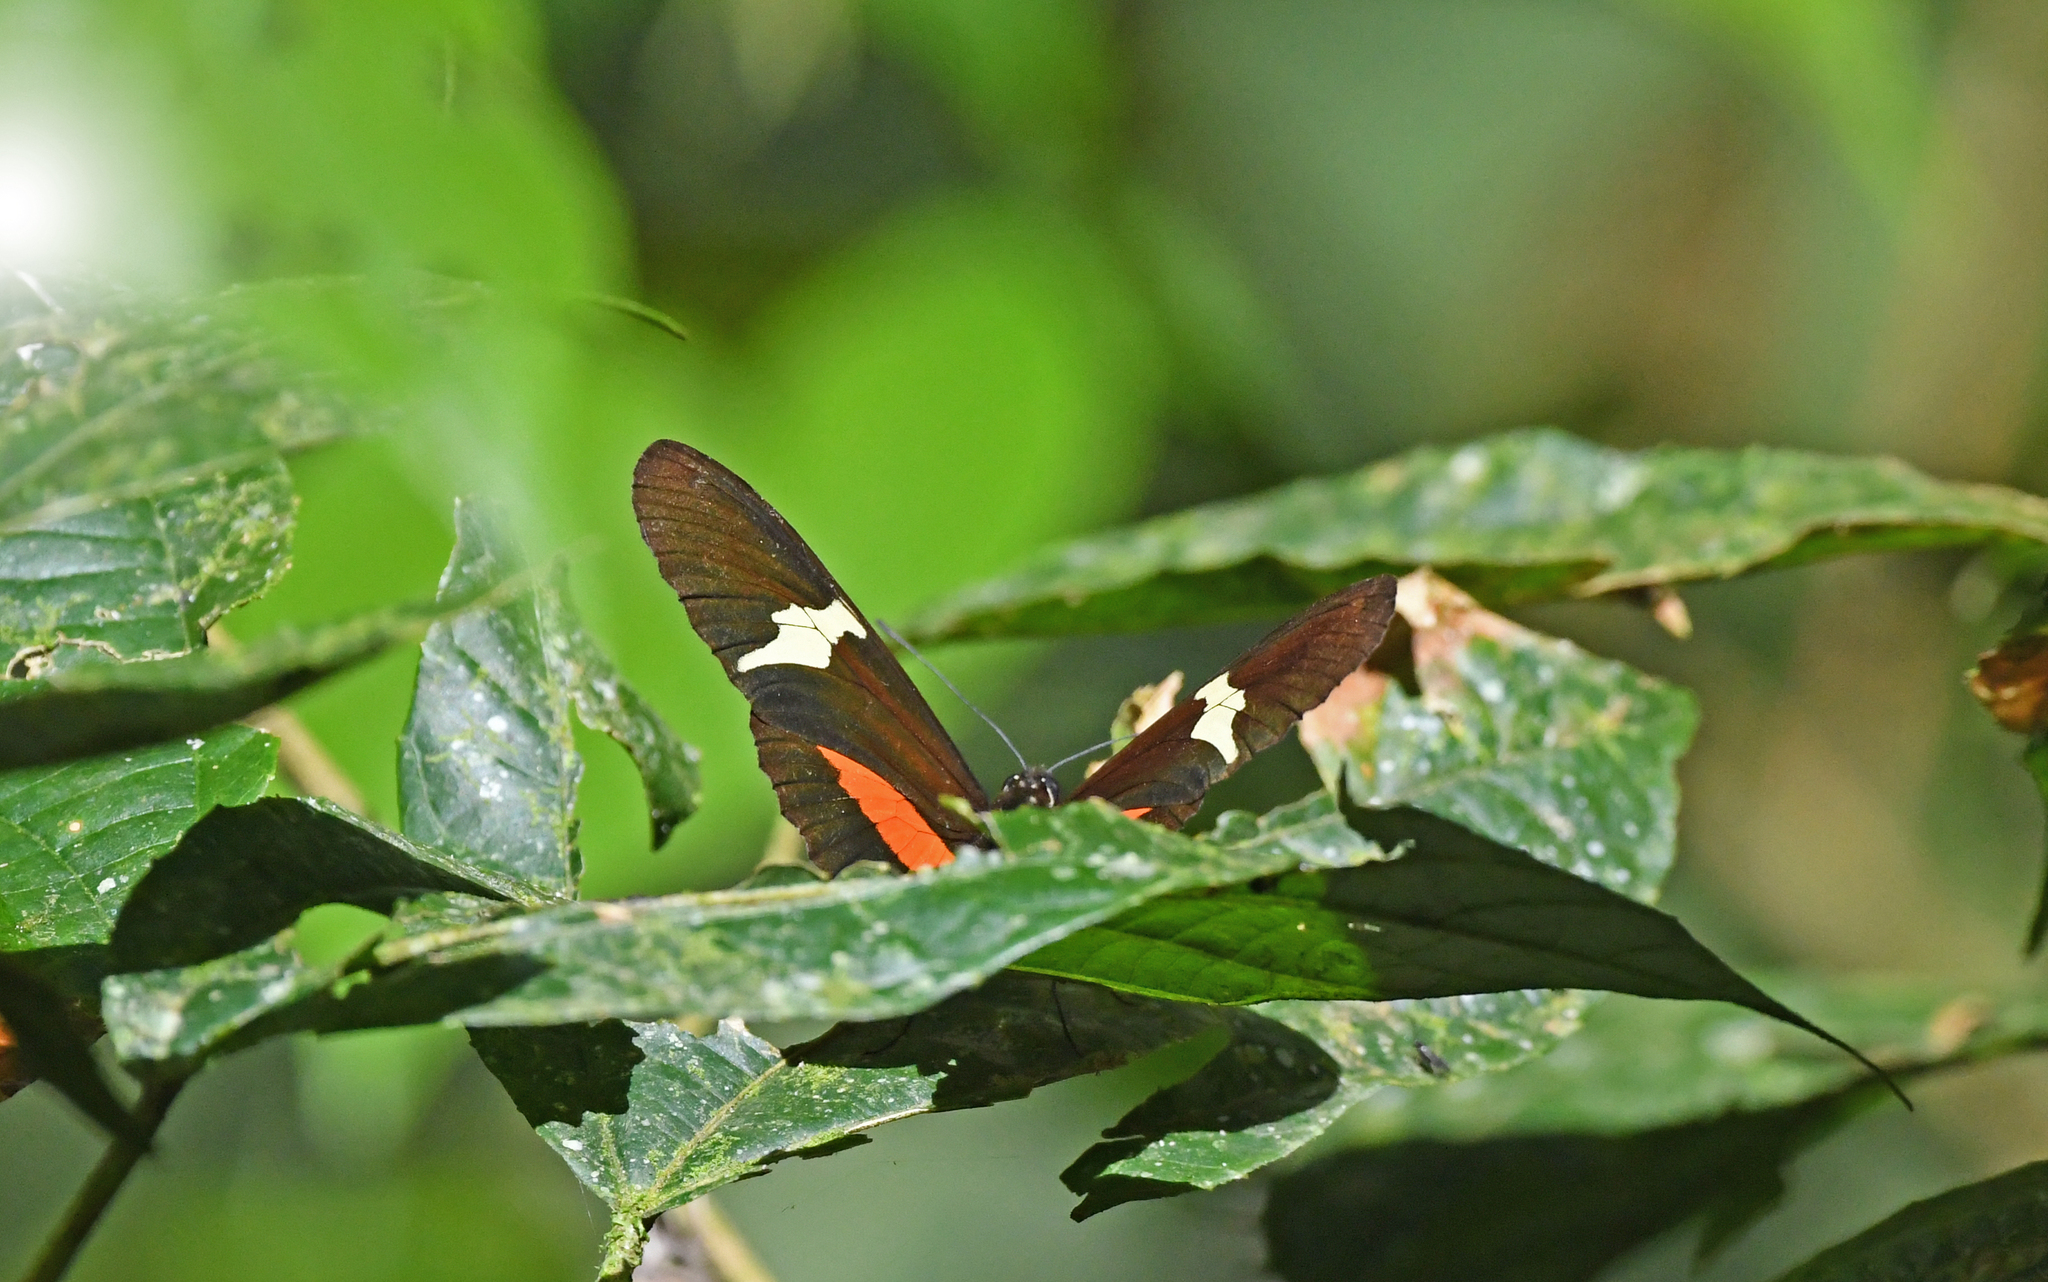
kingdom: Animalia
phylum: Arthropoda
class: Insecta
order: Lepidoptera
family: Nymphalidae
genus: Heliconius
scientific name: Heliconius clysonymus
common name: Clysonymus longwing
